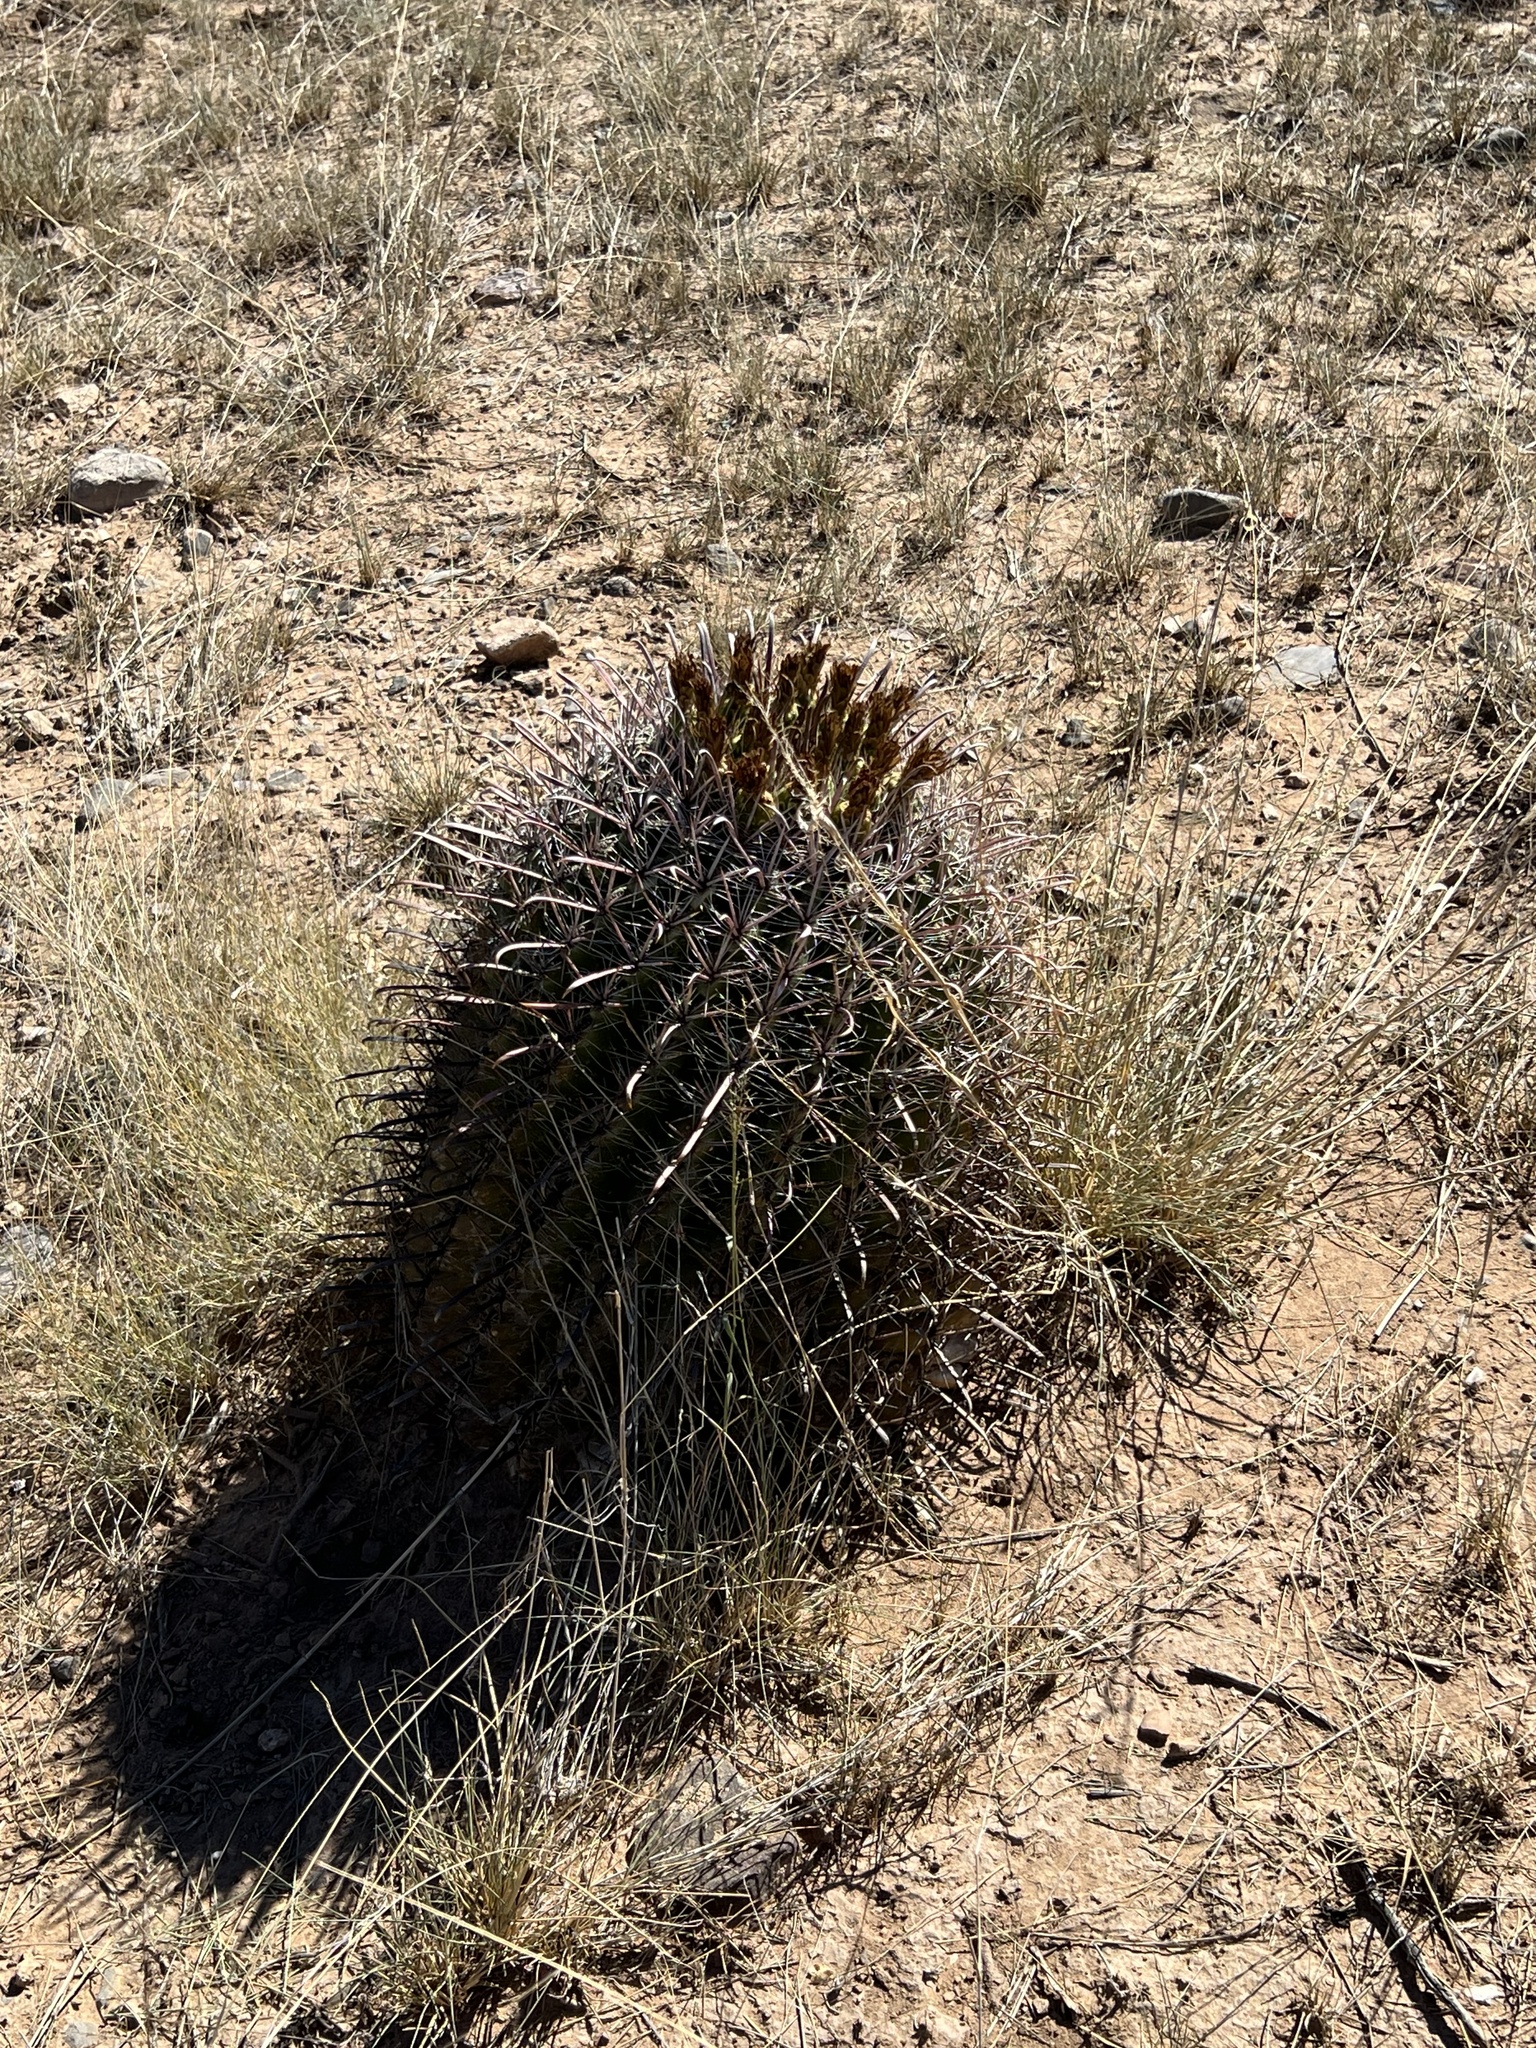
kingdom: Plantae
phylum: Tracheophyta
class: Magnoliopsida
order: Caryophyllales
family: Cactaceae
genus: Ferocactus
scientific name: Ferocactus wislizeni
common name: Candy barrel cactus
